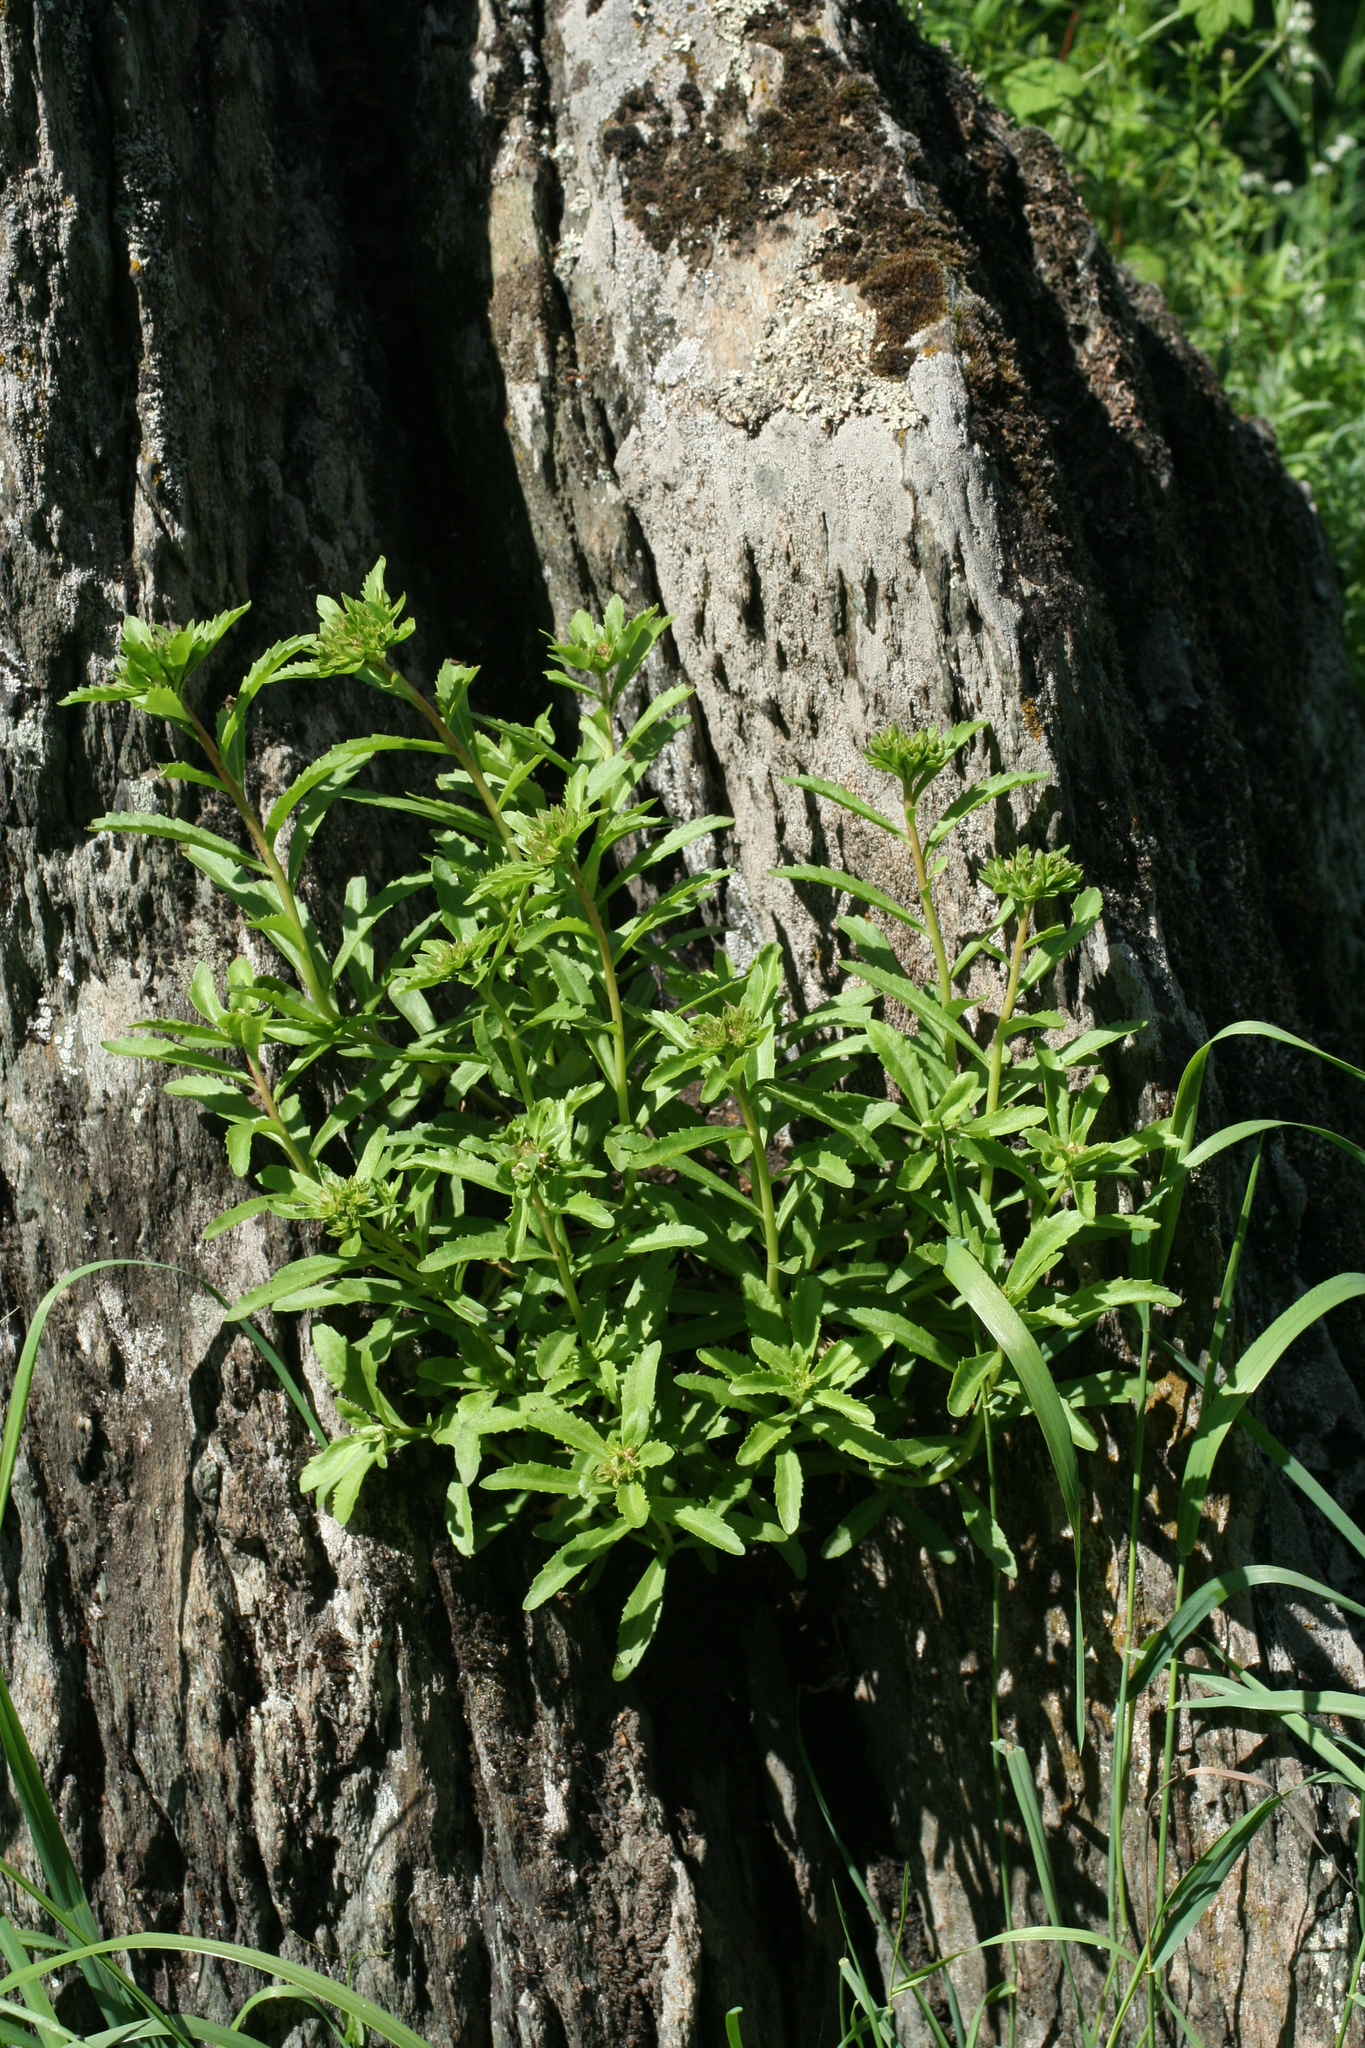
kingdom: Plantae
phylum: Tracheophyta
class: Magnoliopsida
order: Saxifragales
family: Crassulaceae
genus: Phedimus
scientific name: Phedimus aizoon
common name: Orpin aizoon
